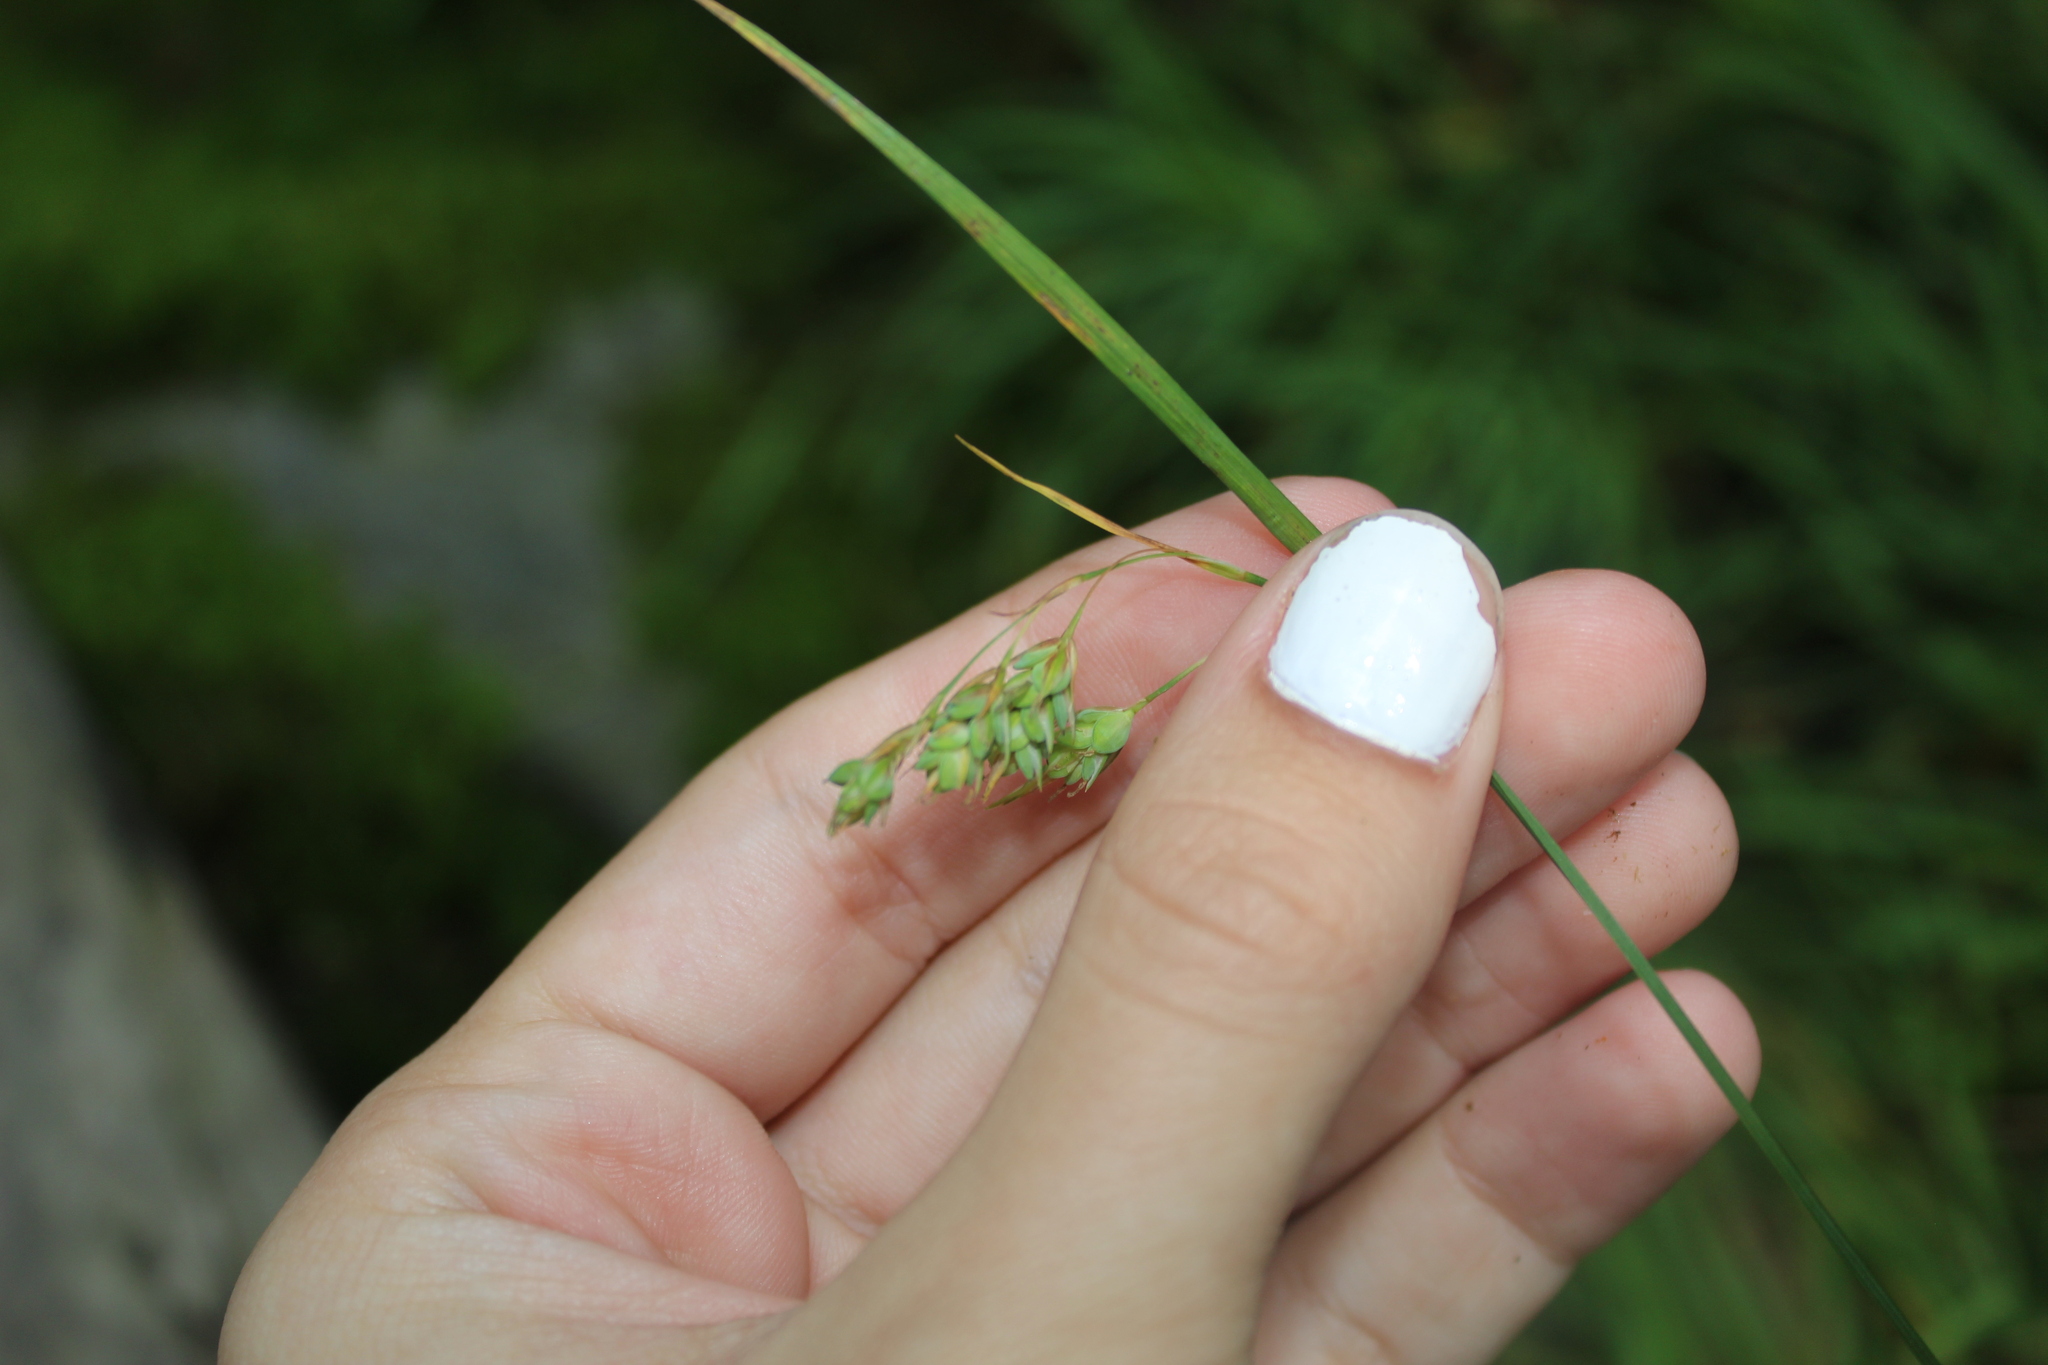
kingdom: Plantae
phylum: Tracheophyta
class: Liliopsida
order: Poales
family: Cyperaceae
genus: Carex
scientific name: Carex magellanica
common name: Bog sedge
